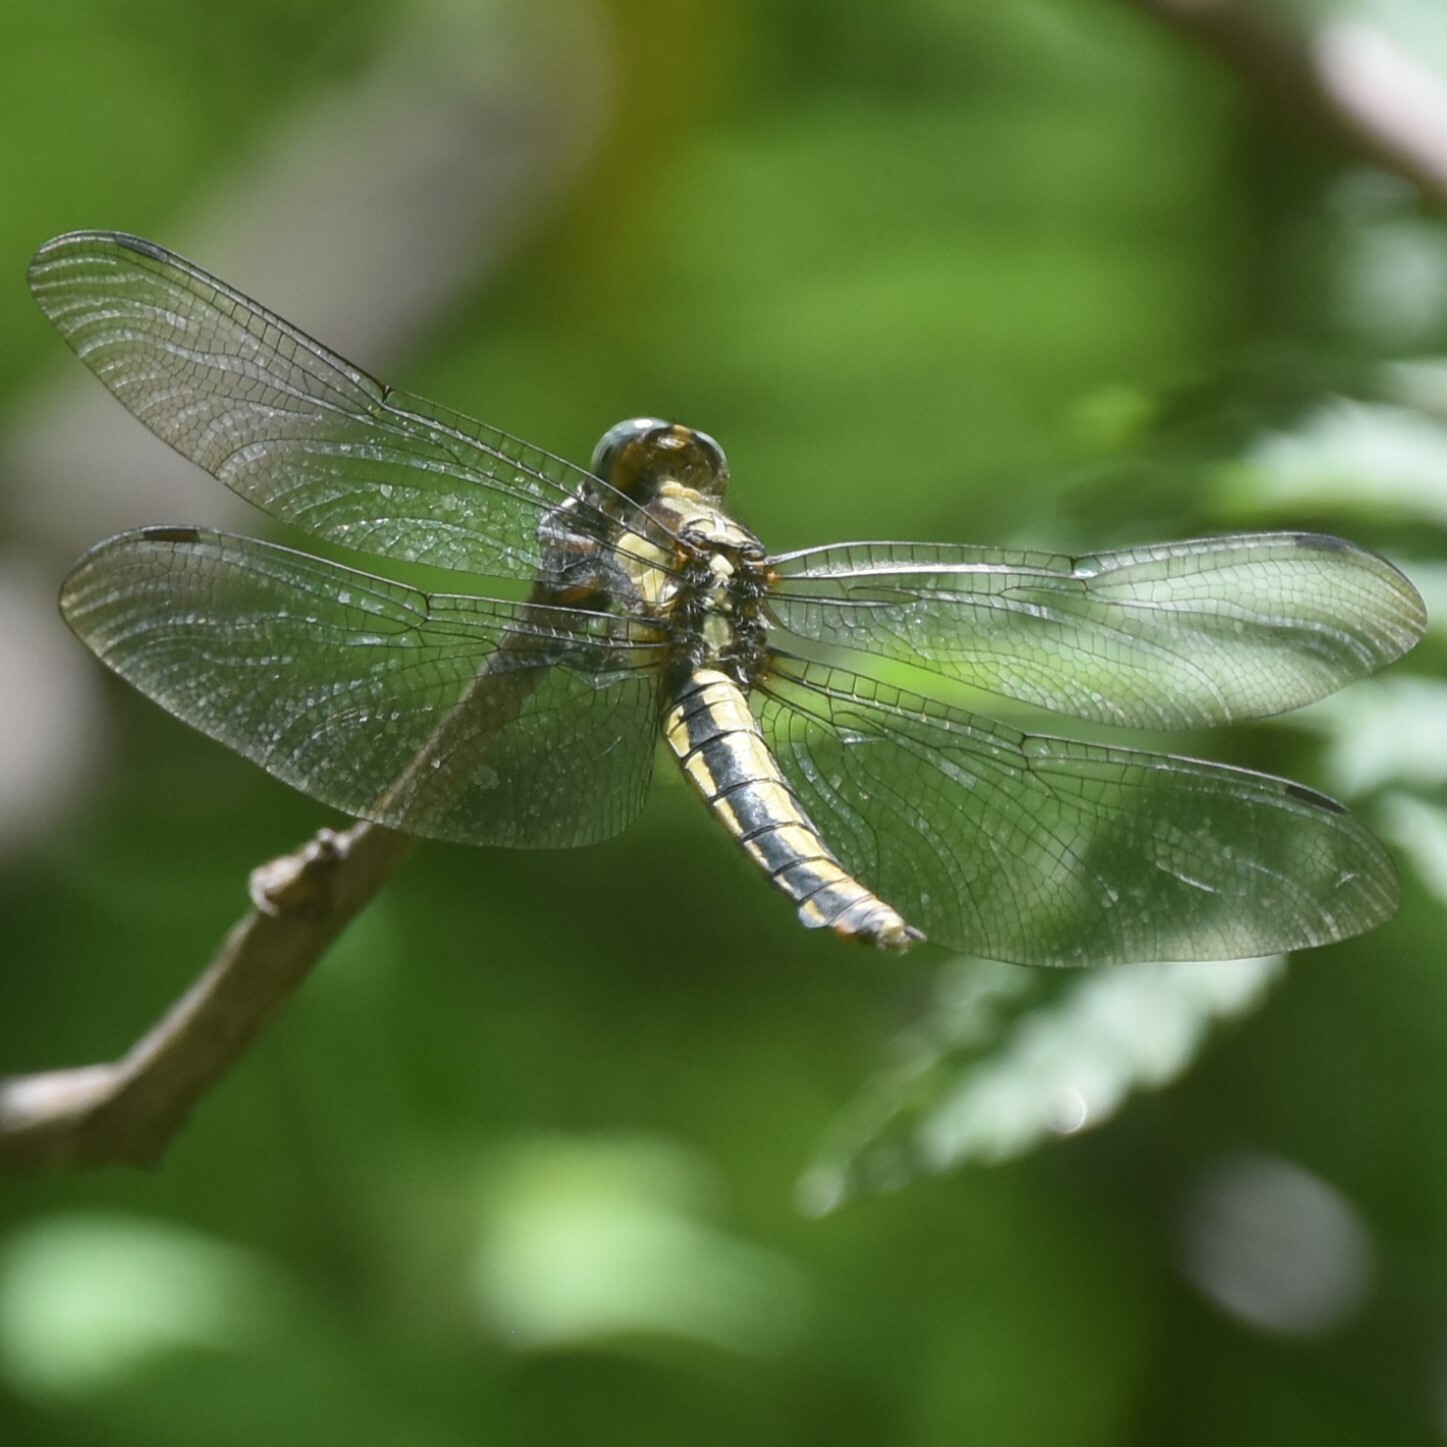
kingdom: Animalia
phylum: Arthropoda
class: Insecta
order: Odonata
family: Libellulidae
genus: Orthetrum
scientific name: Orthetrum internum
